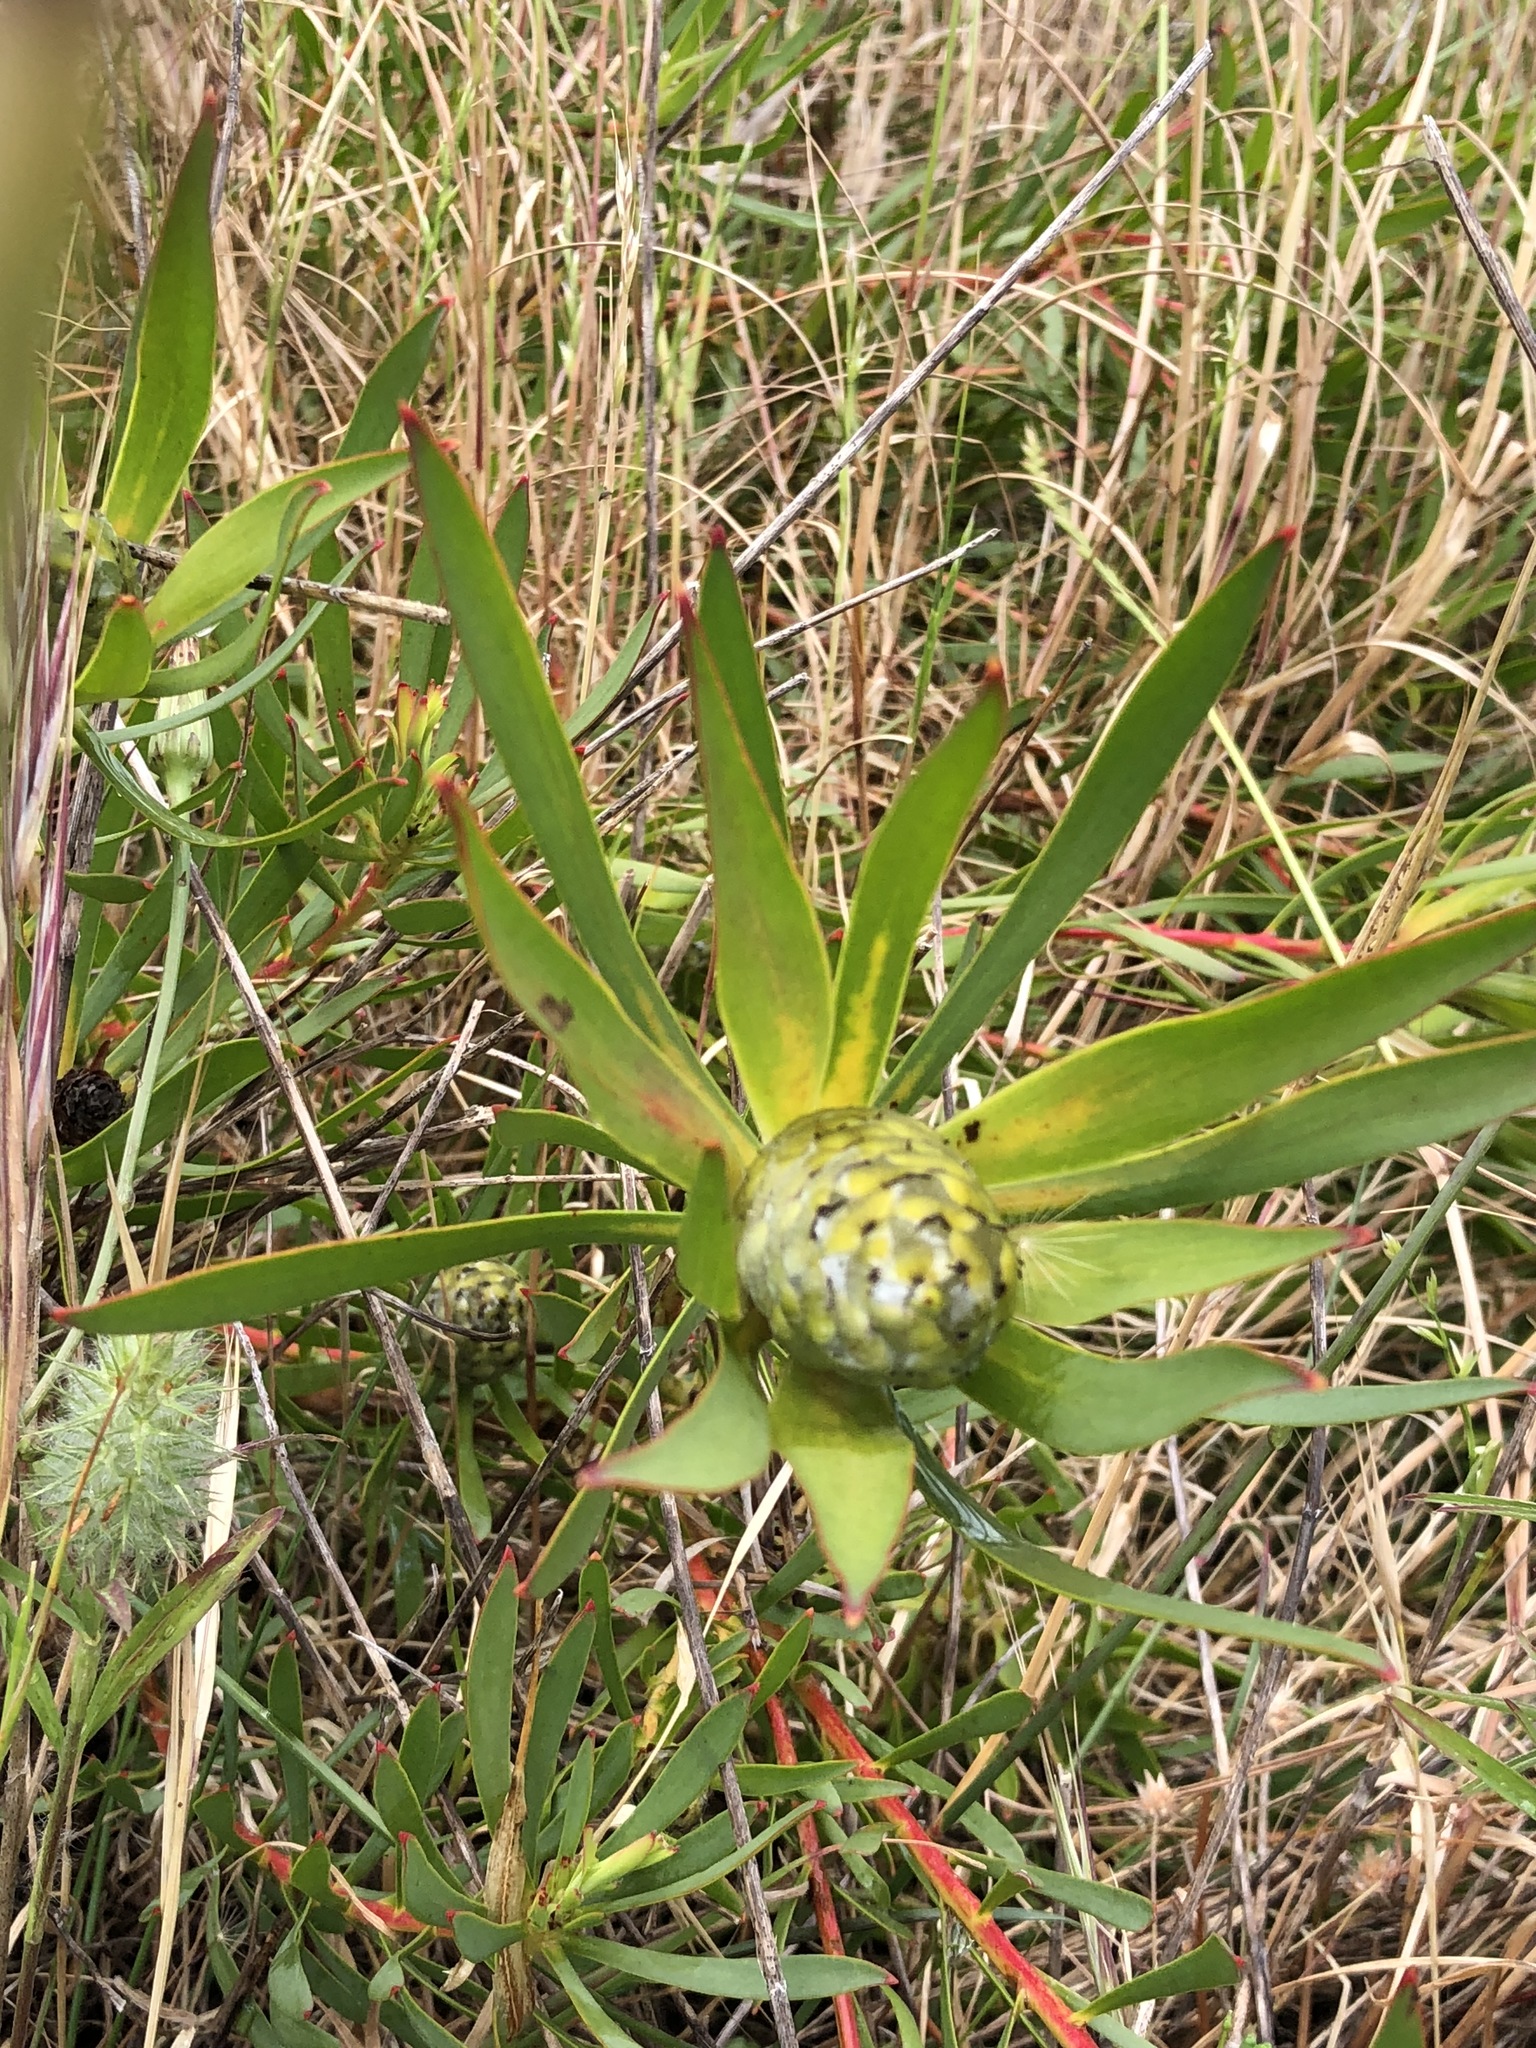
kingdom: Plantae
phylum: Tracheophyta
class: Magnoliopsida
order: Proteales
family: Proteaceae
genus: Leucadendron
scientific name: Leucadendron salignum
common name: Common sunshine conebush
